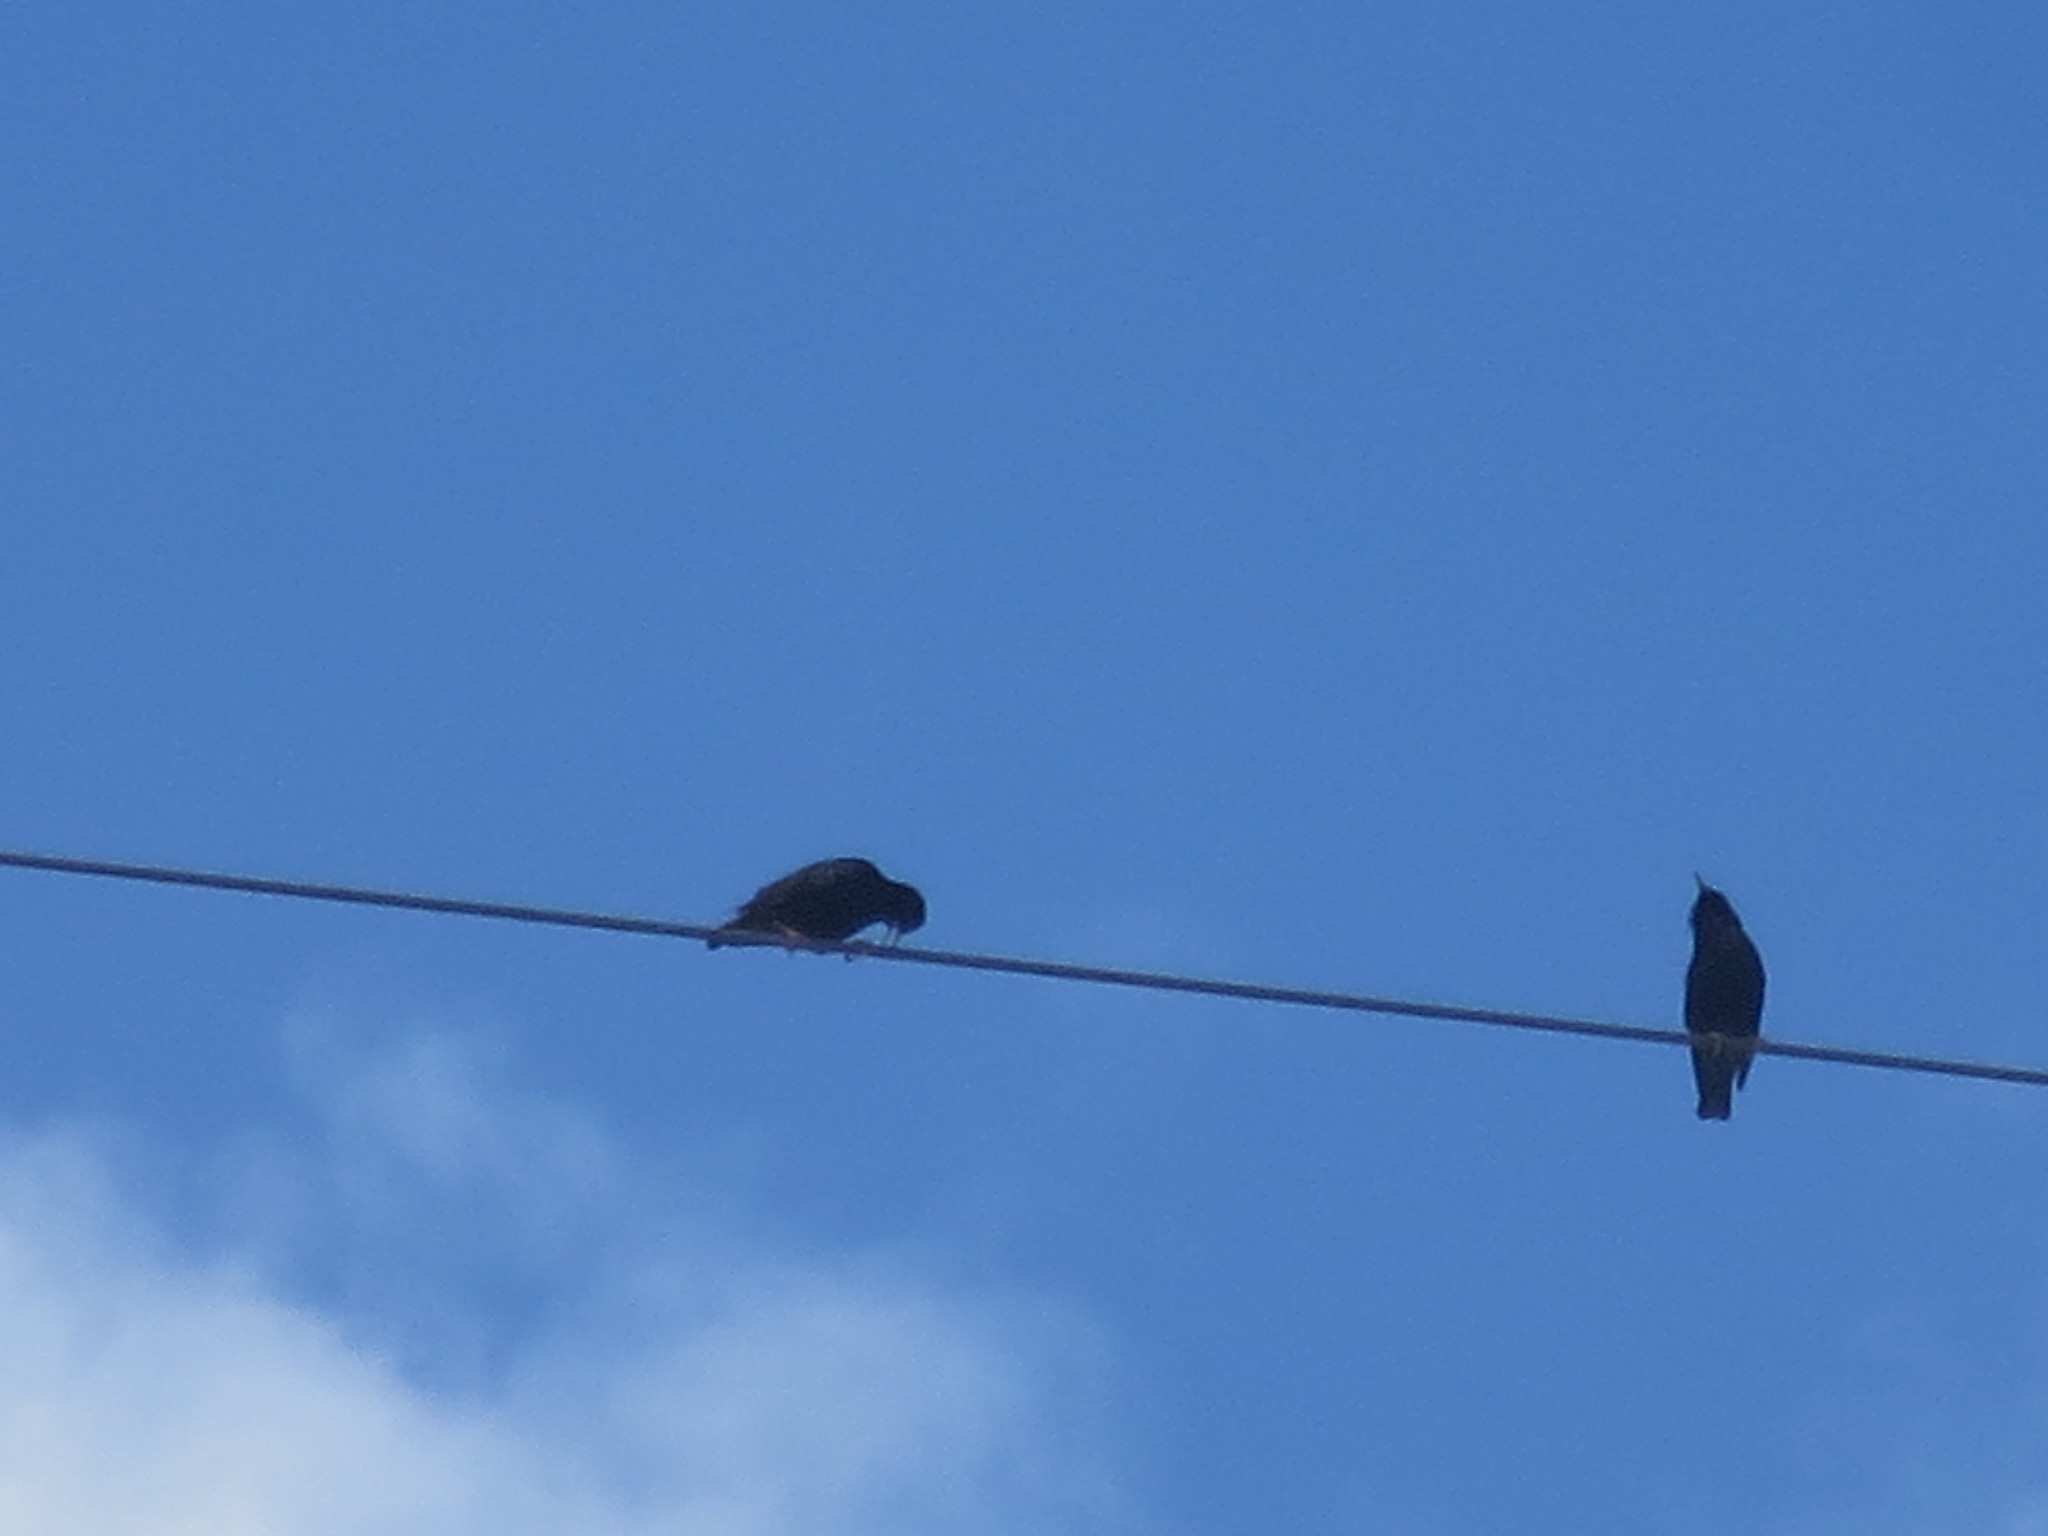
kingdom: Animalia
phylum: Chordata
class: Aves
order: Passeriformes
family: Sturnidae
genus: Sturnus
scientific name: Sturnus vulgaris
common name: Common starling
